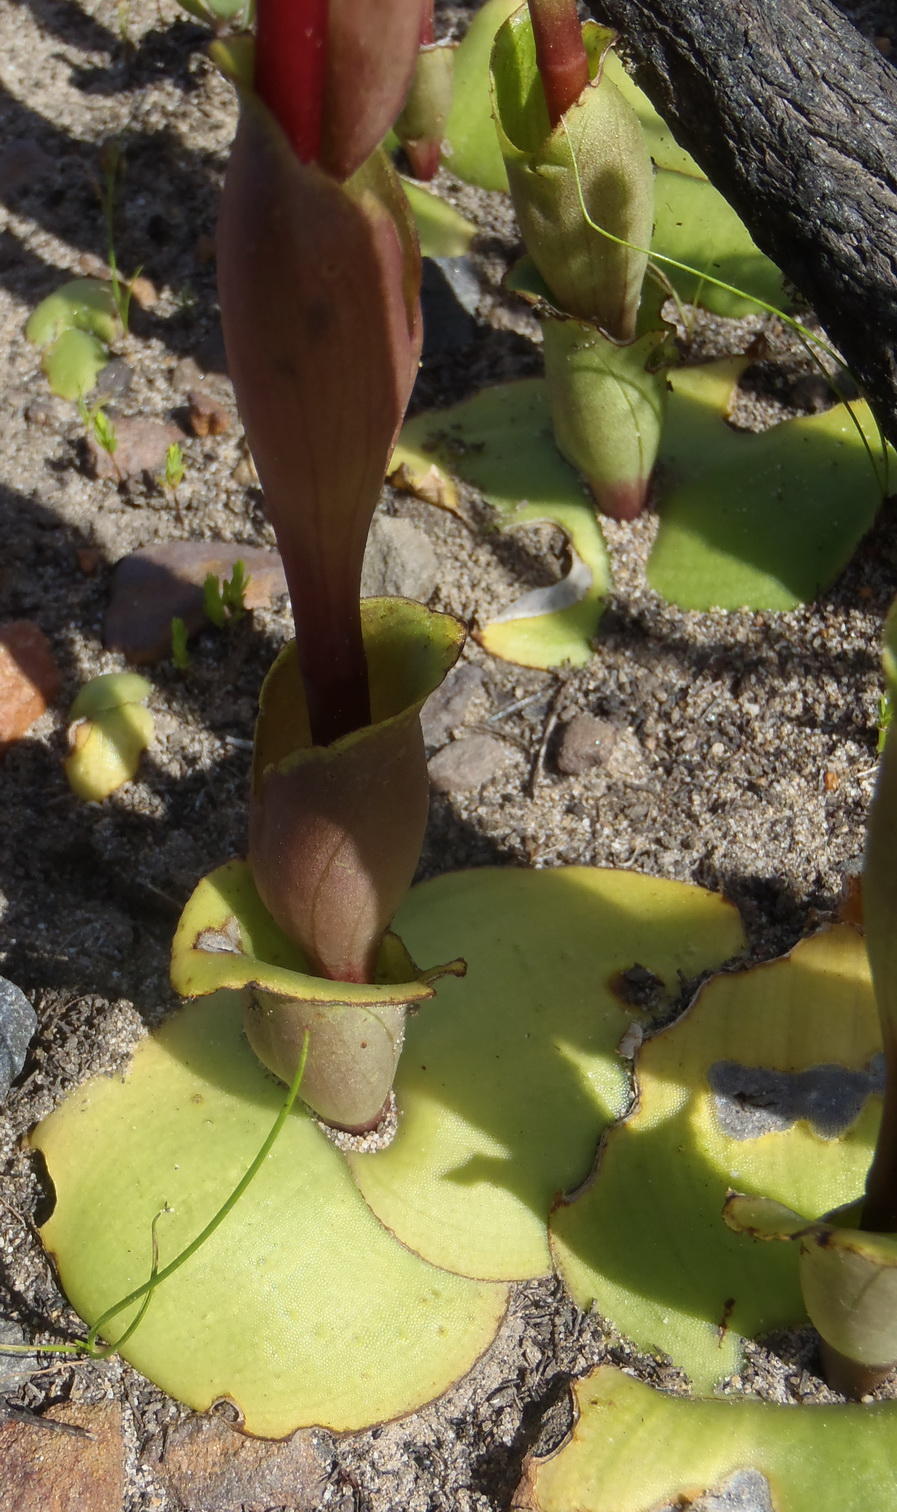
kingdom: Plantae
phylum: Tracheophyta
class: Liliopsida
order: Asparagales
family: Orchidaceae
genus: Satyrium
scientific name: Satyrium bicorne
